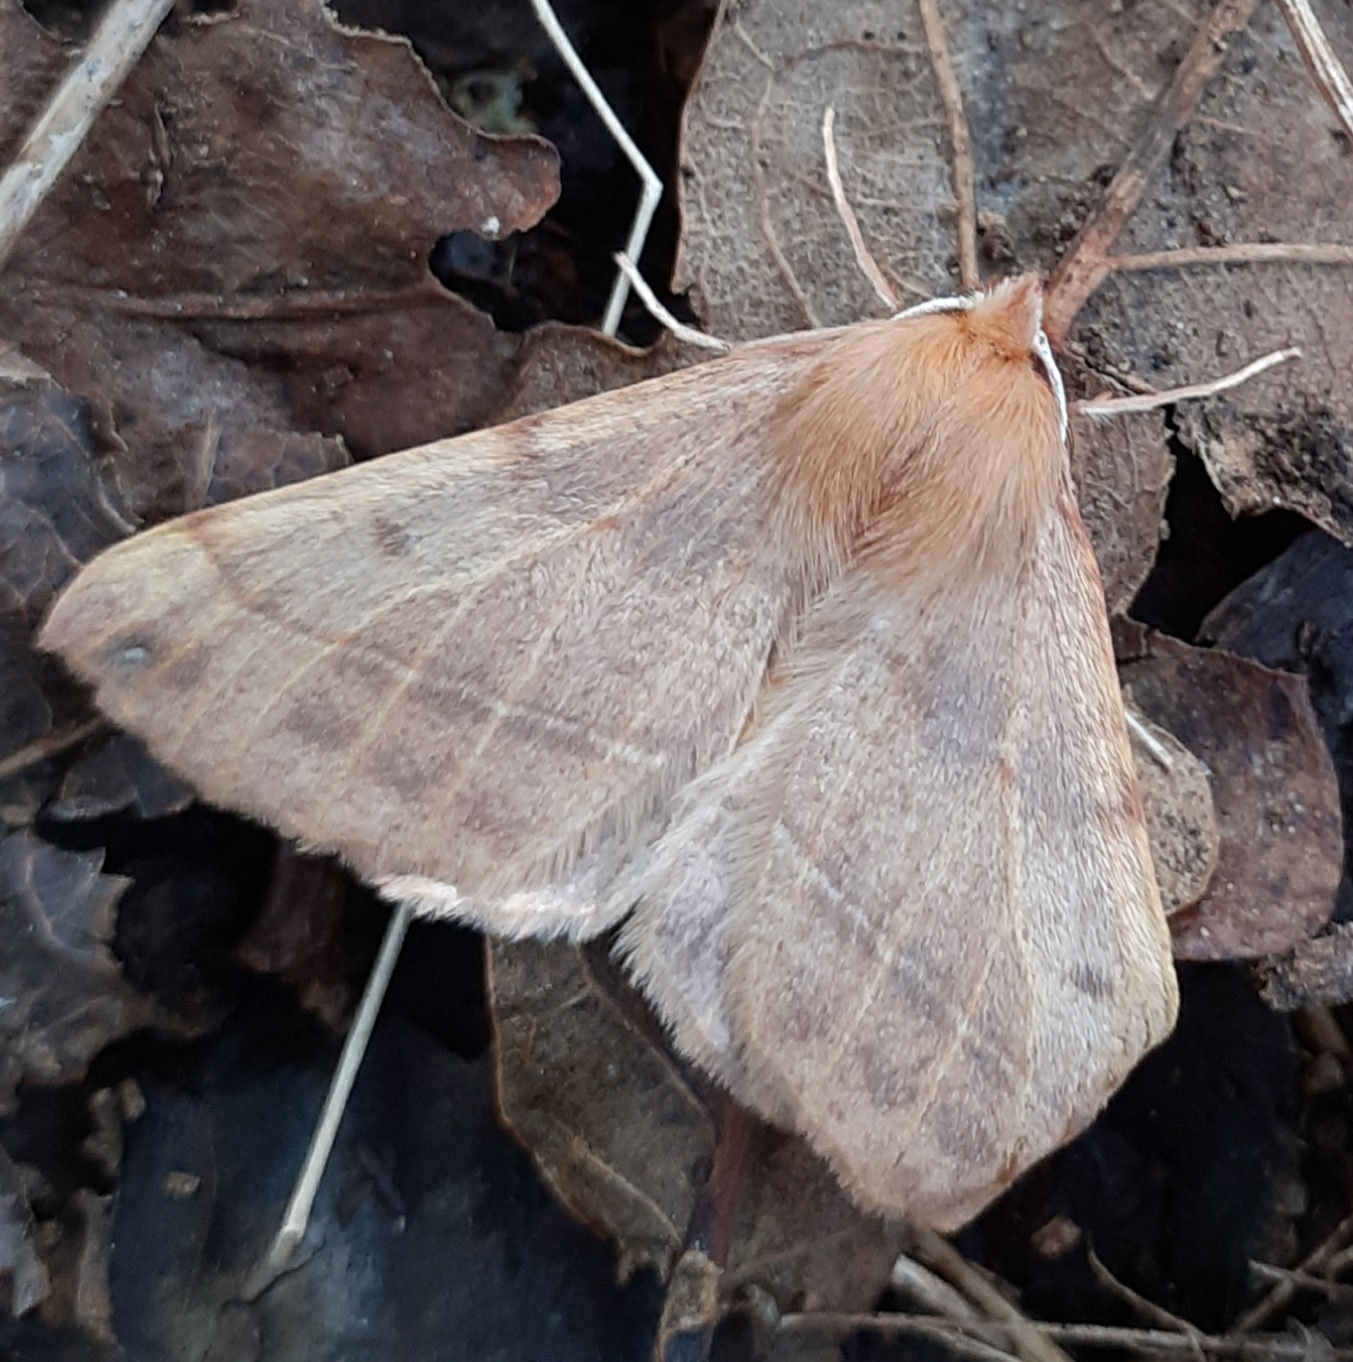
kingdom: Animalia
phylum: Arthropoda
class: Insecta
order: Lepidoptera
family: Geometridae
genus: Colotois
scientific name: Colotois pennaria
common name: Feathered thorn
